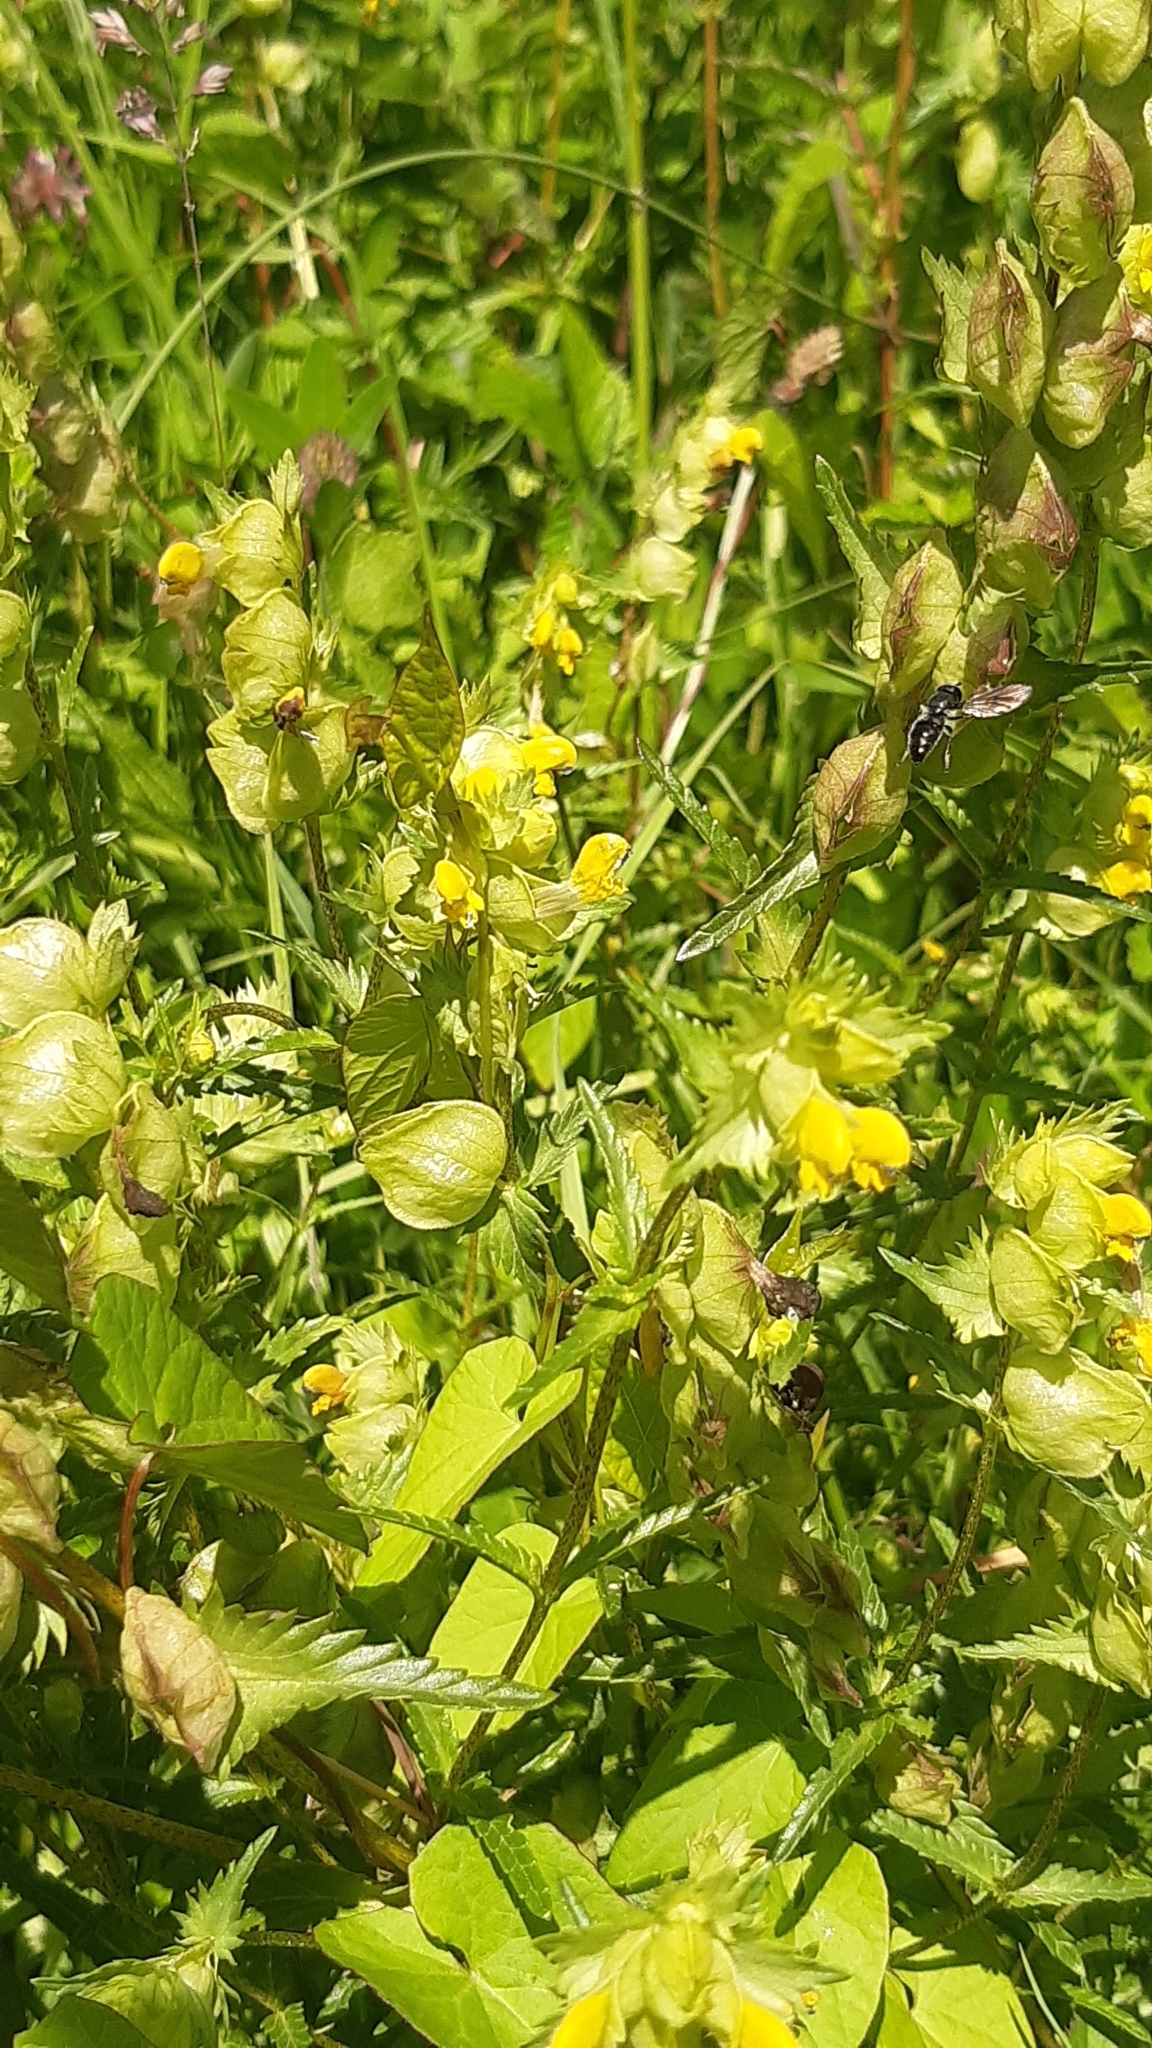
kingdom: Plantae
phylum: Tracheophyta
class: Magnoliopsida
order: Lamiales
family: Orobanchaceae
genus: Rhinanthus
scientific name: Rhinanthus minor
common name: Yellow-rattle
